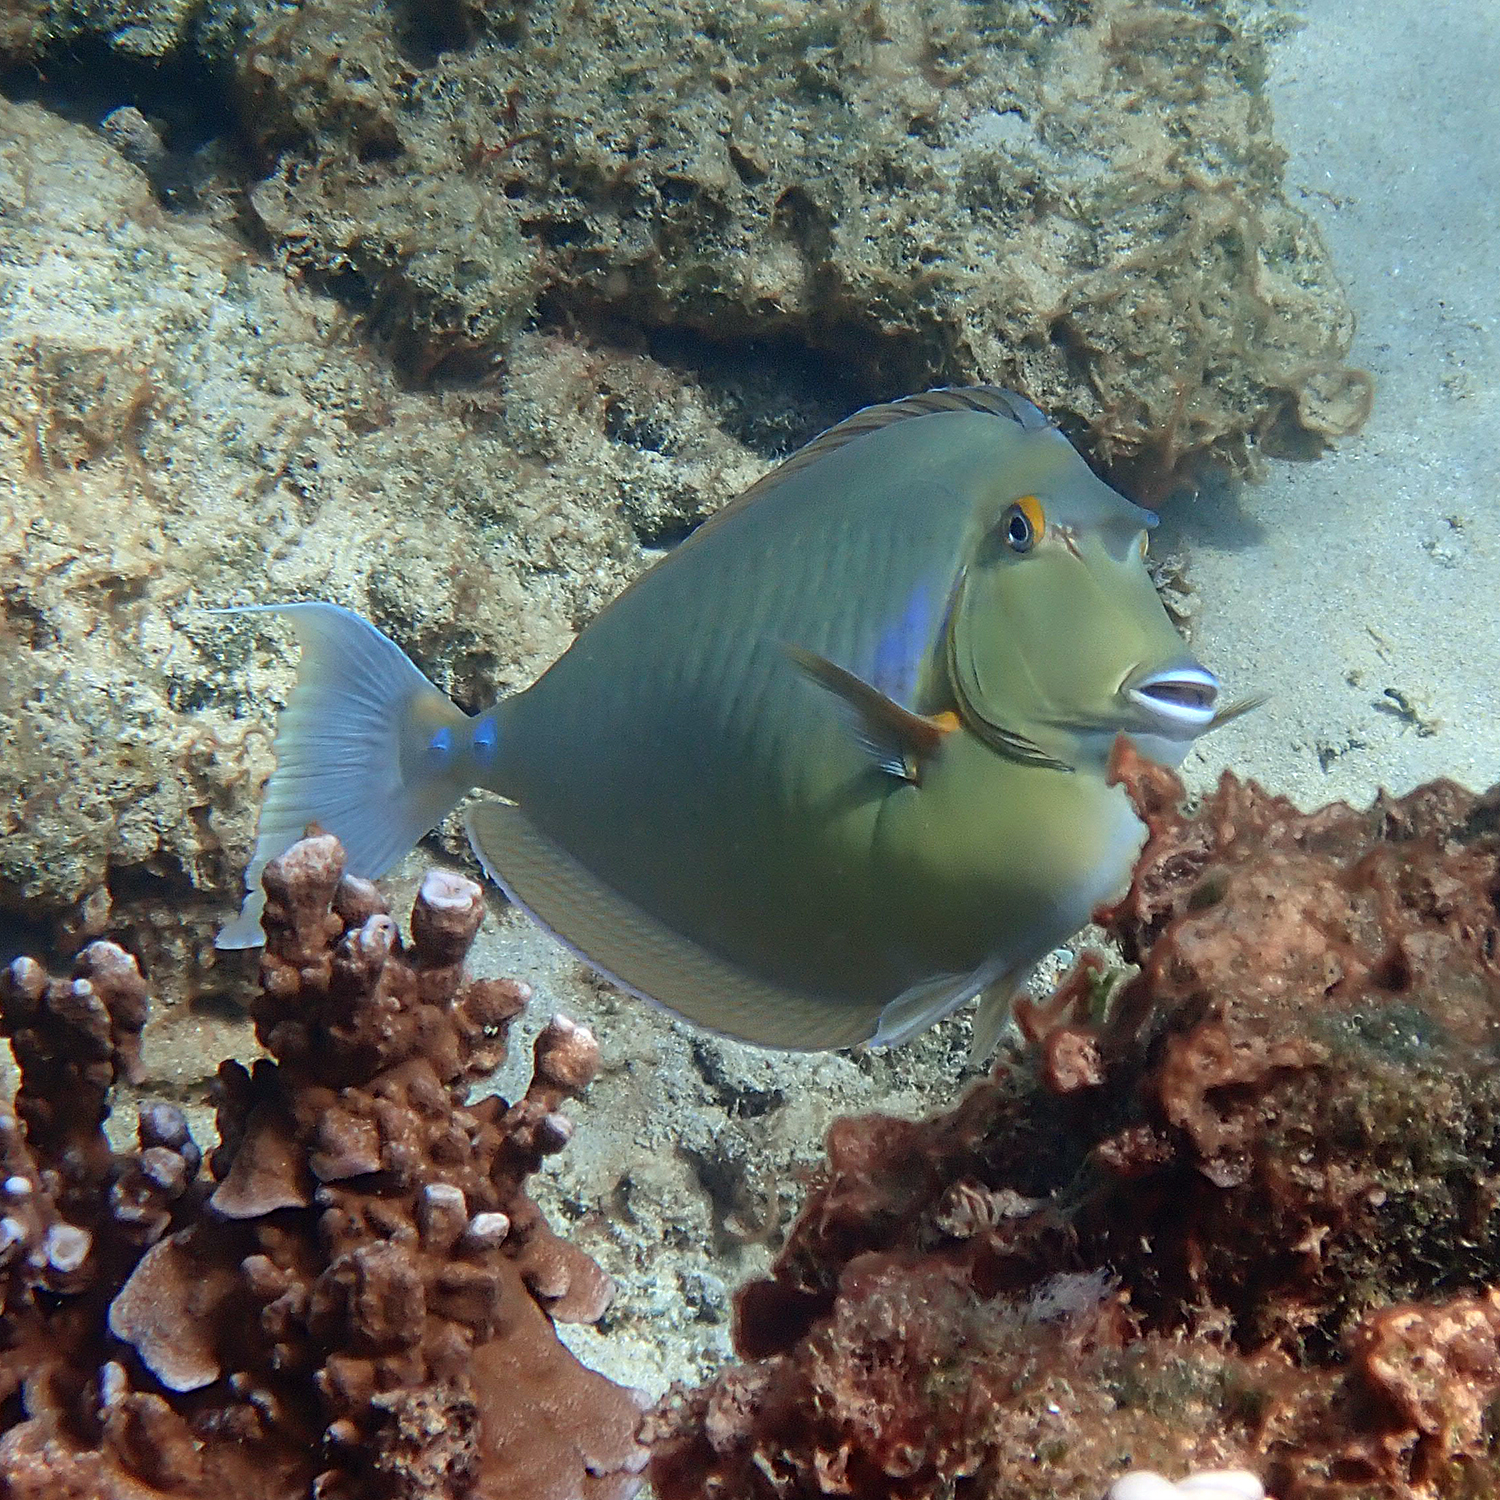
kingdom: Animalia
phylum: Chordata
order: Perciformes
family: Acanthuridae
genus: Naso
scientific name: Naso unicornis
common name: Bluespine unicornfish
